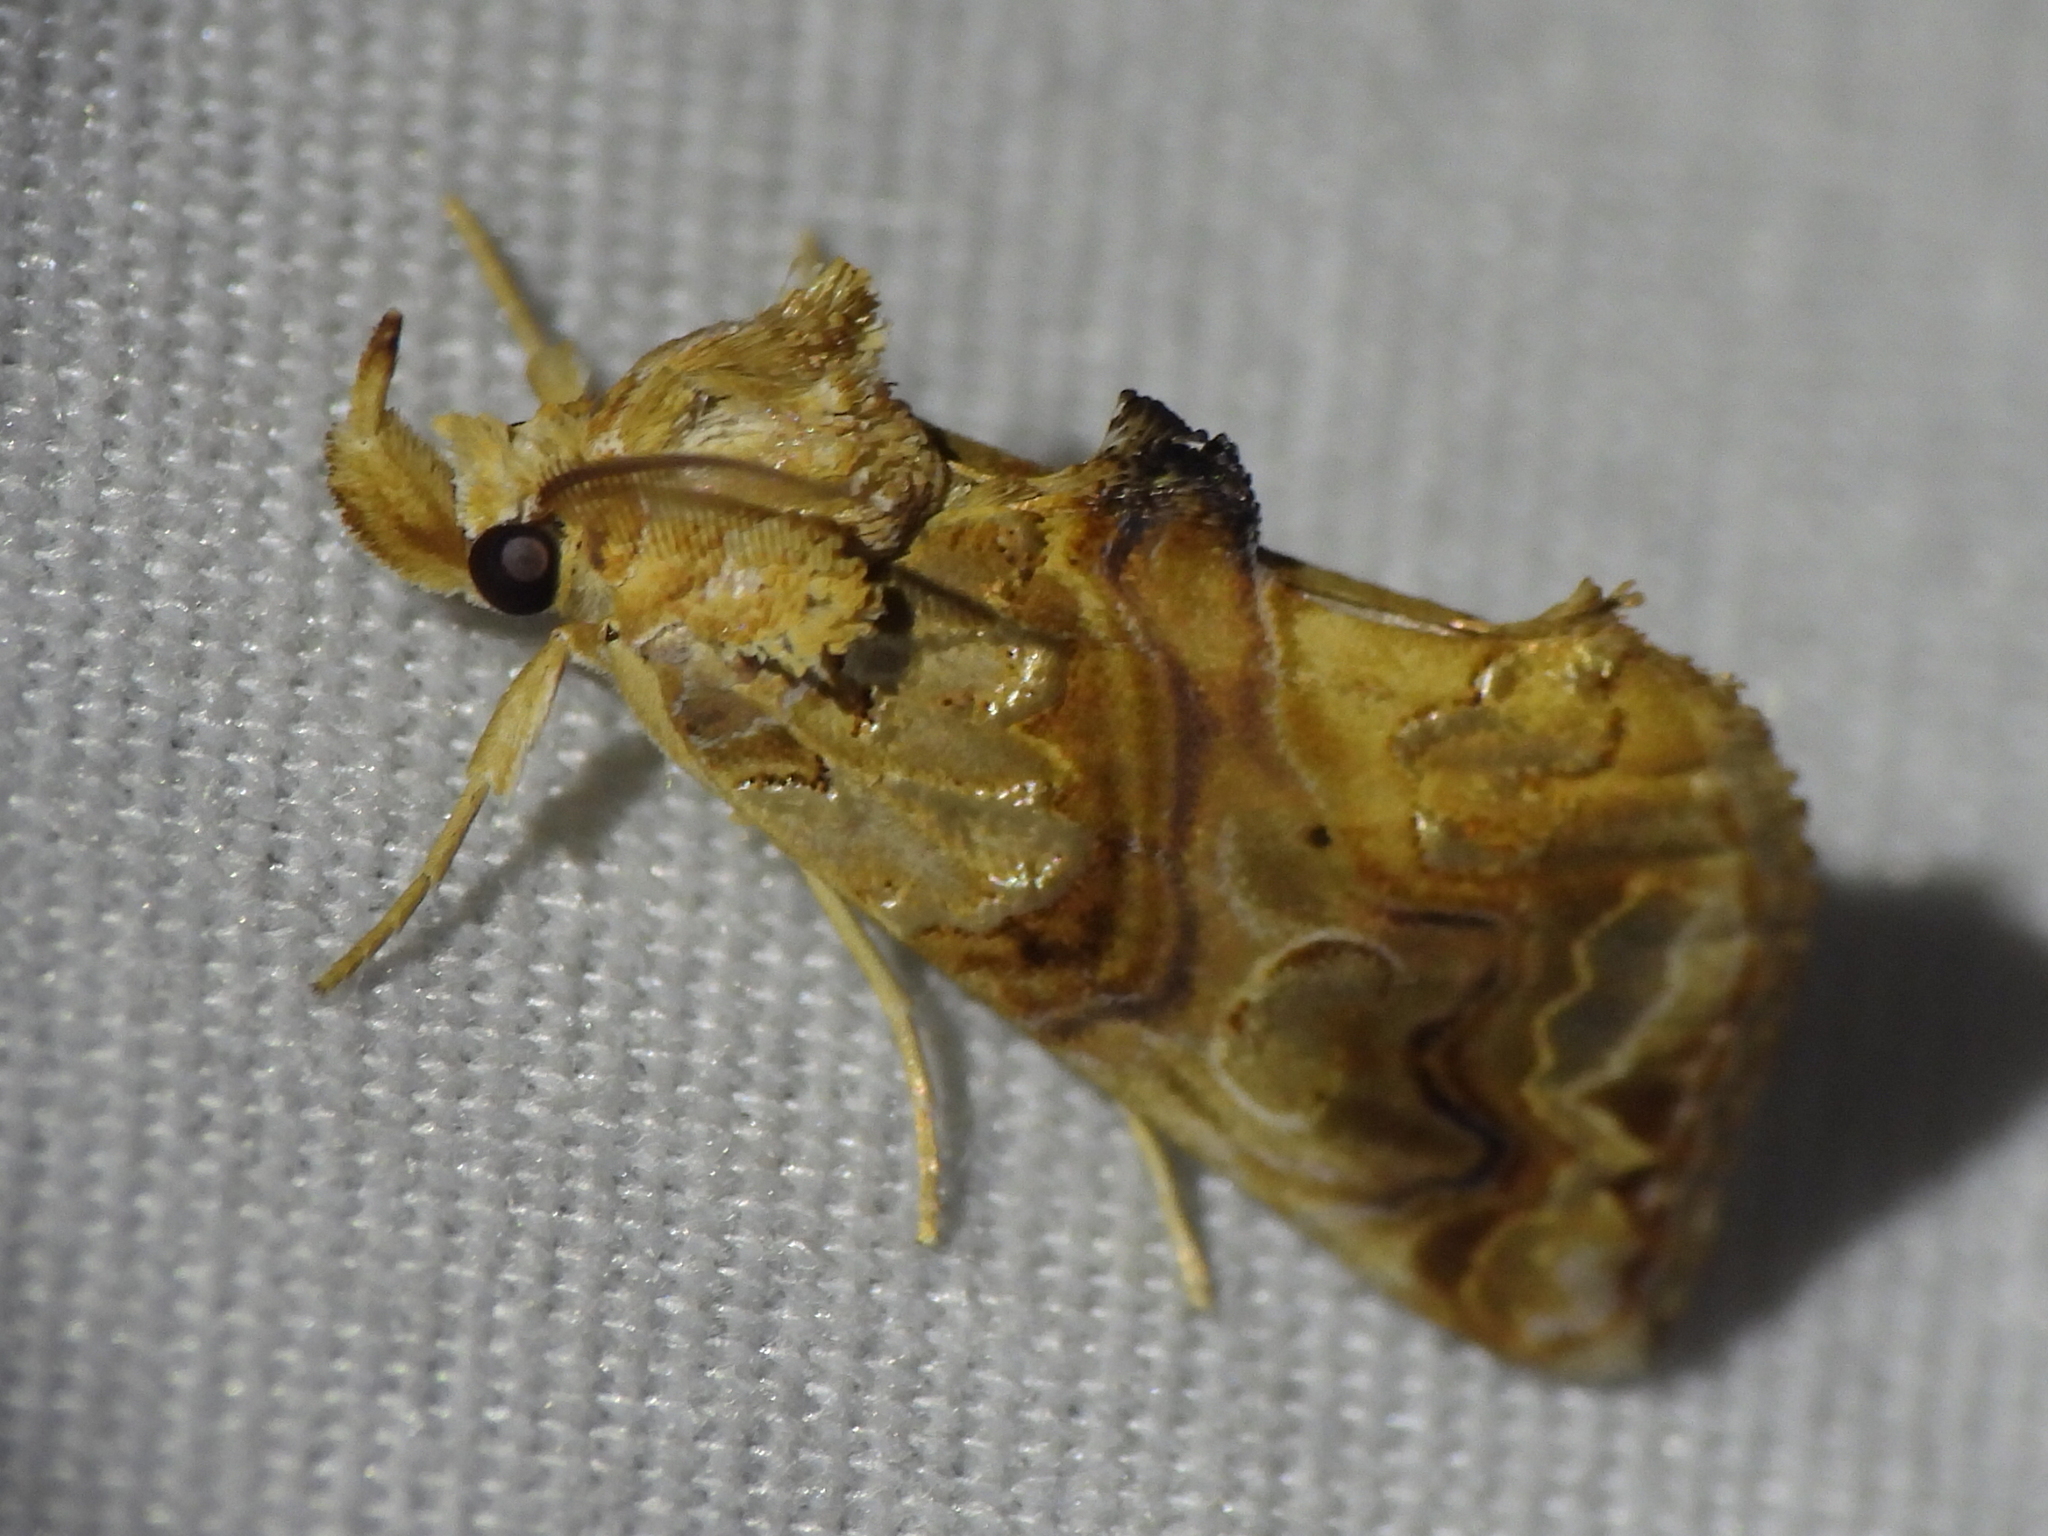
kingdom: Animalia
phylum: Arthropoda
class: Insecta
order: Lepidoptera
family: Erebidae
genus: Plusiodonta
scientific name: Plusiodonta compressipalpis
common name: Moonseed moth
